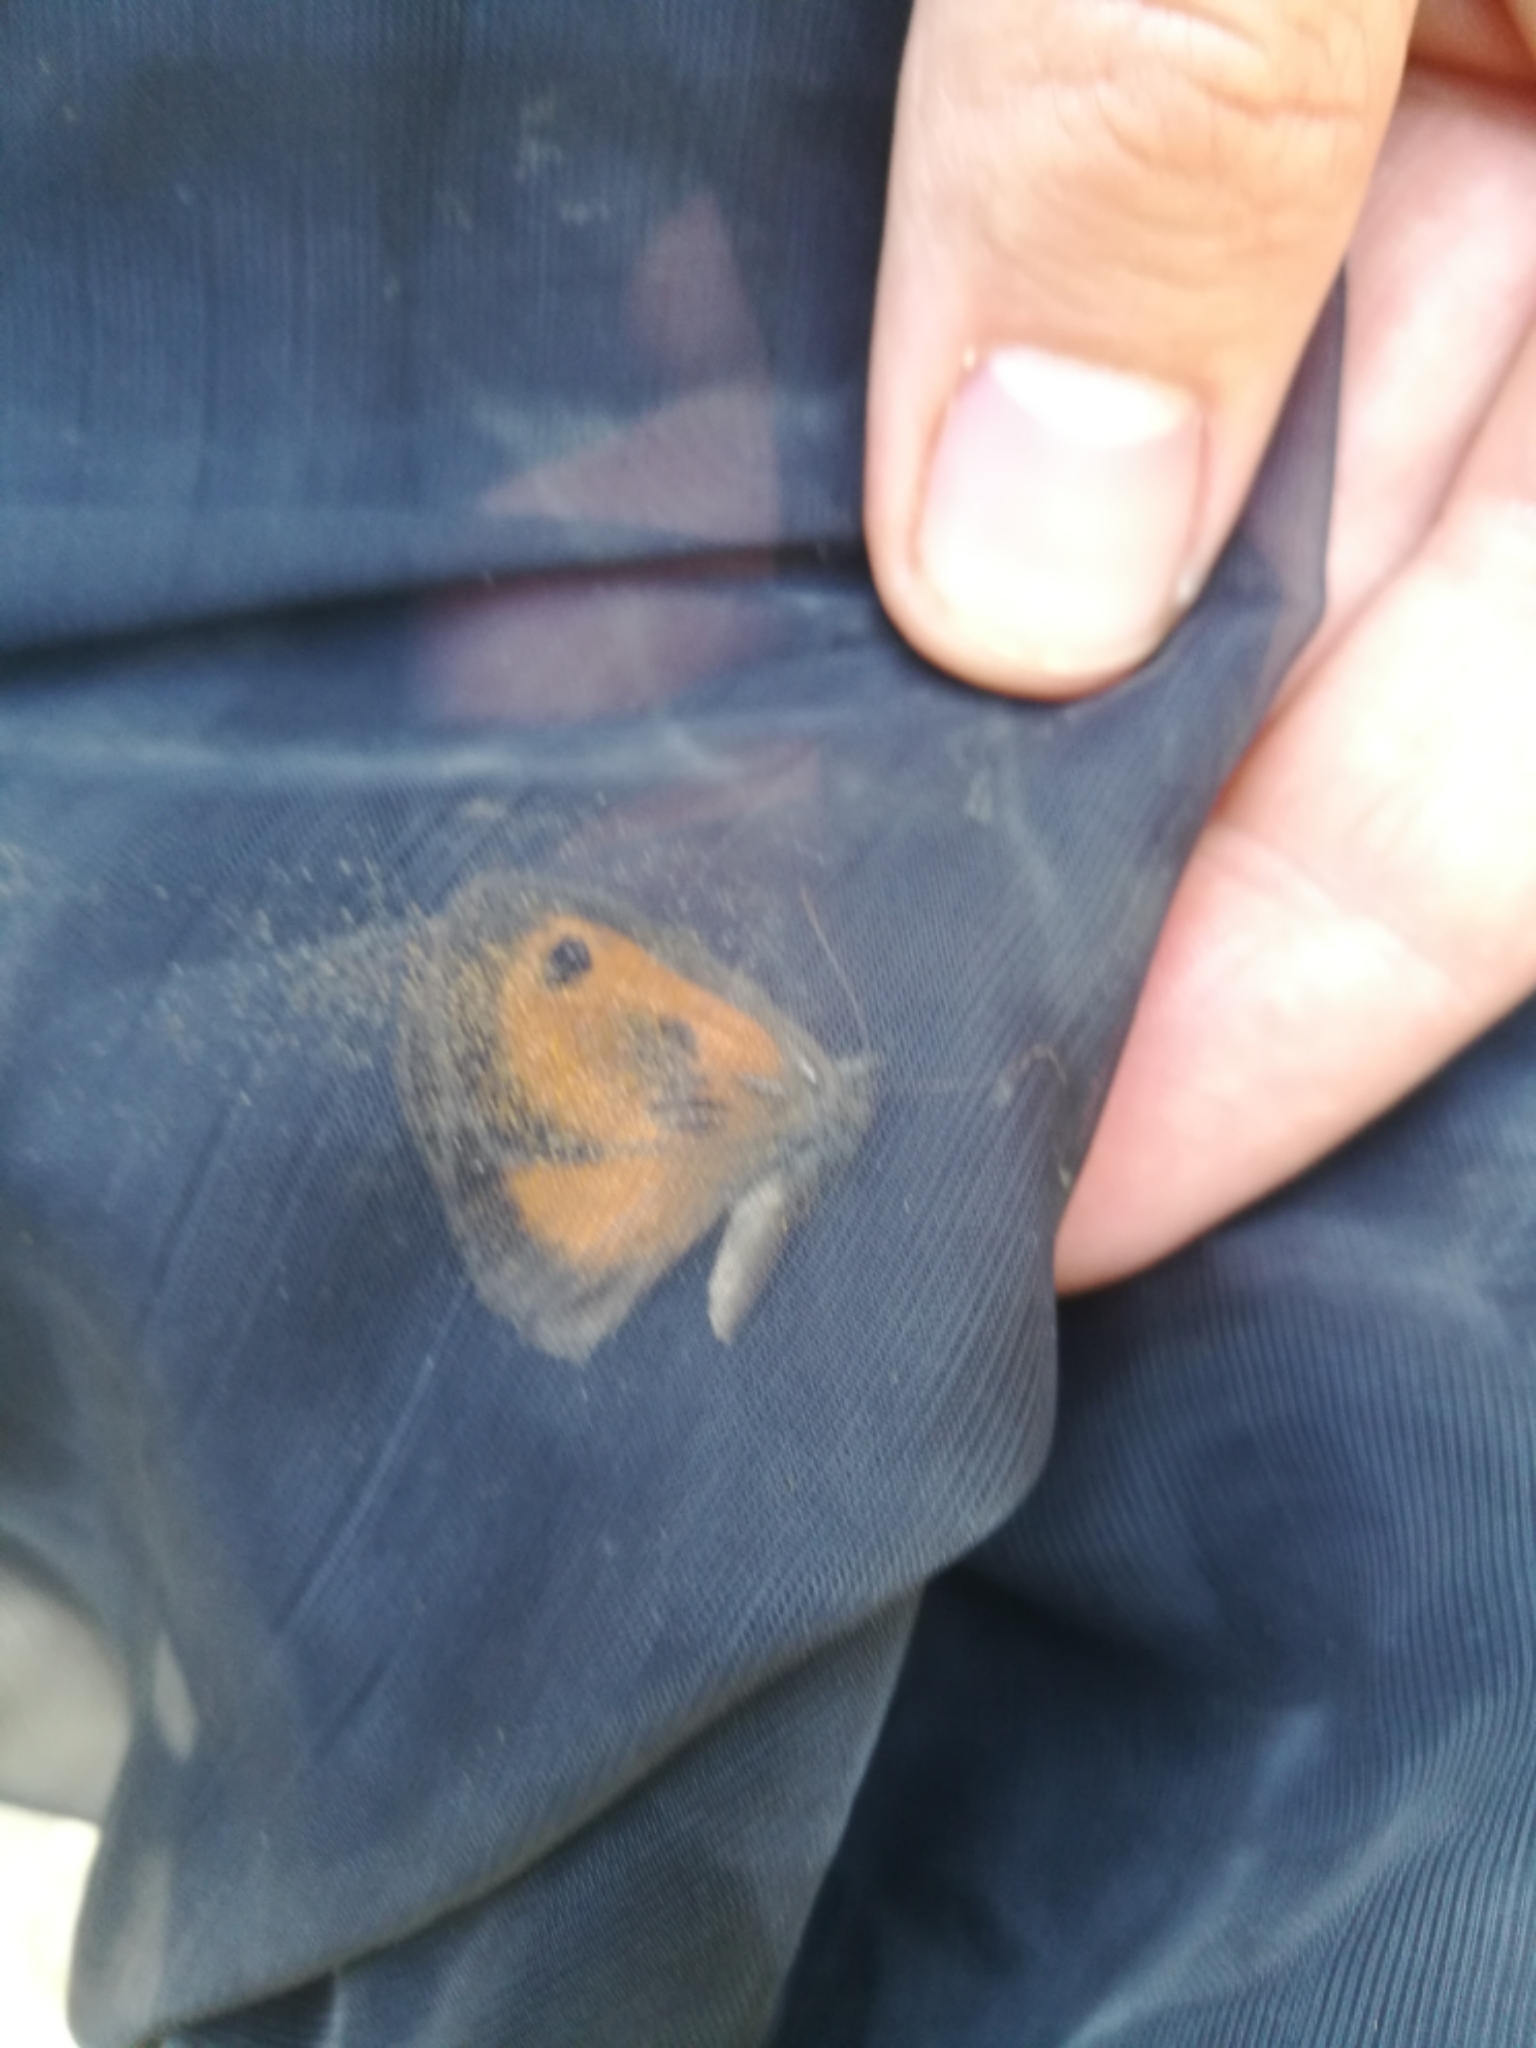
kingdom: Animalia
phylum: Arthropoda
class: Insecta
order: Lepidoptera
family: Nymphalidae
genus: Pyronia
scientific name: Pyronia cecilia
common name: Southern gatekeeper
